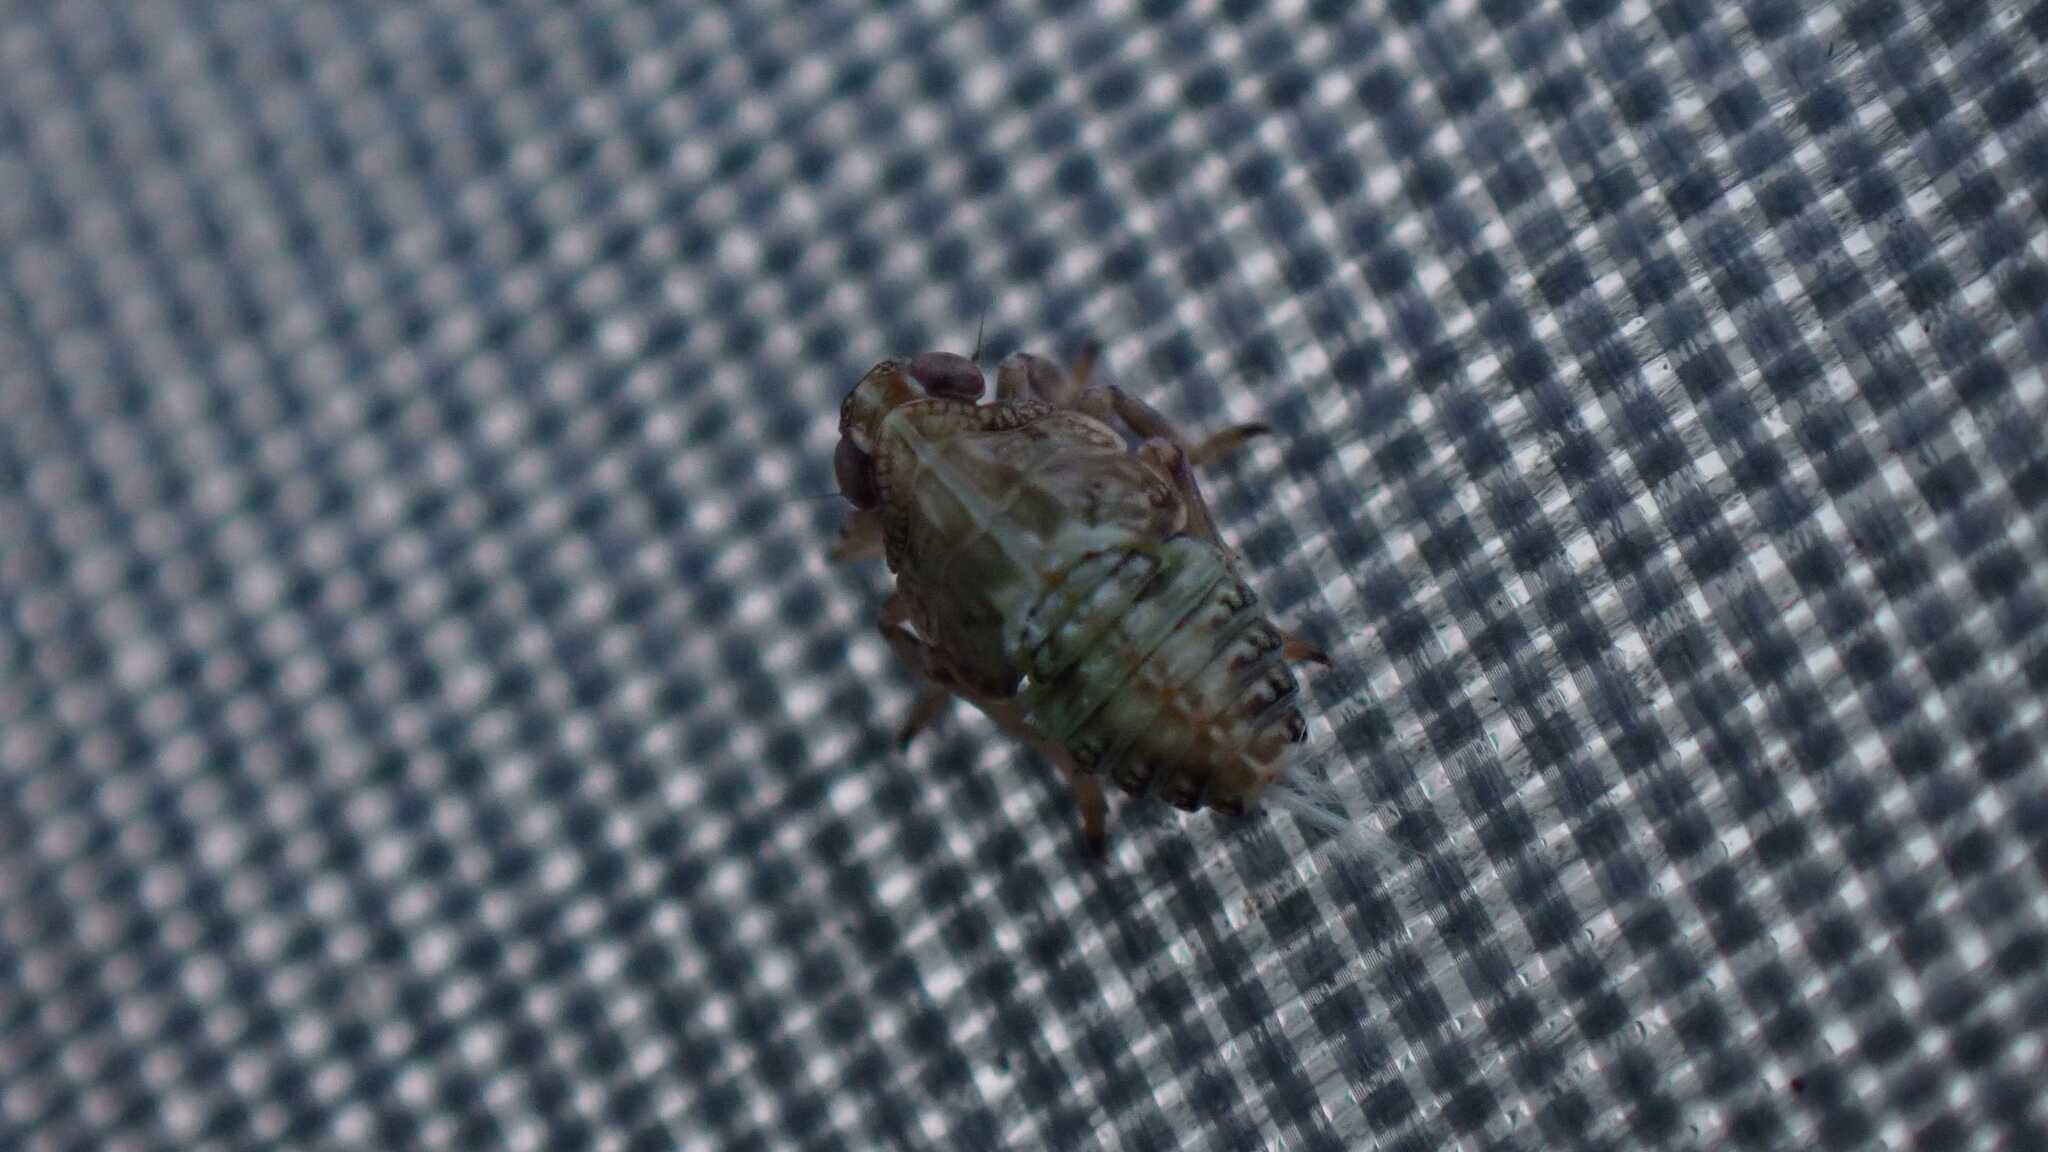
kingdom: Animalia
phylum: Arthropoda
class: Insecta
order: Hemiptera
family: Issidae
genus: Issus
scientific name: Issus
